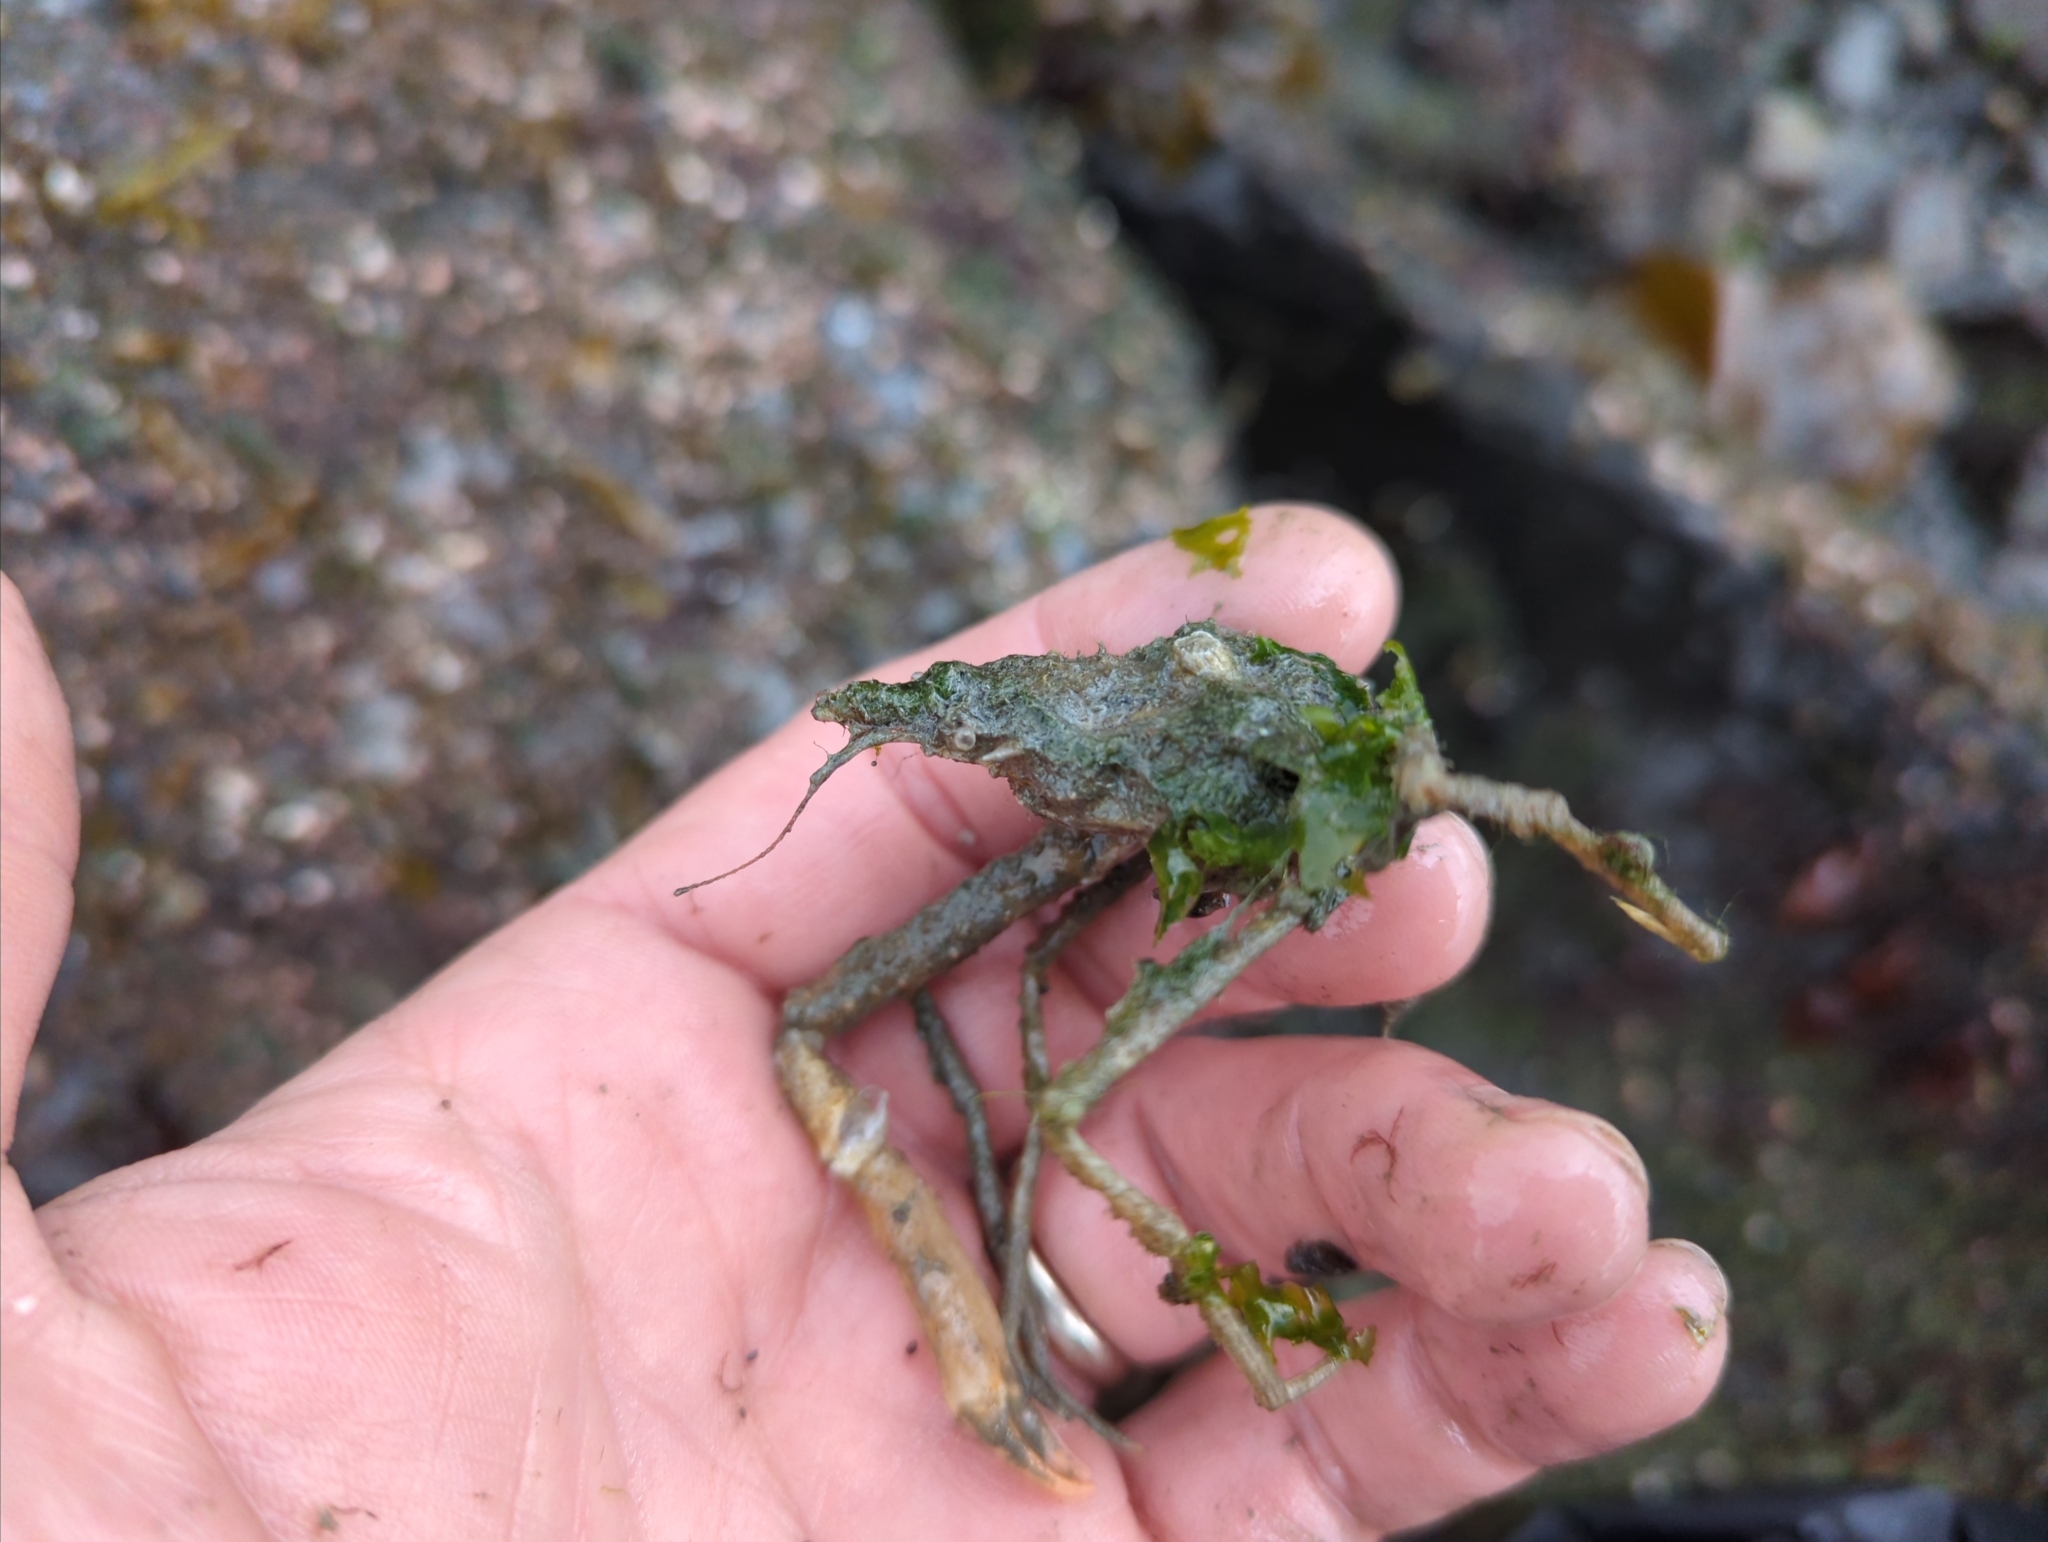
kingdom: Animalia
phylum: Arthropoda
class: Malacostraca
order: Decapoda
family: Oregoniidae
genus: Oregonia
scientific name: Oregonia gracilis
